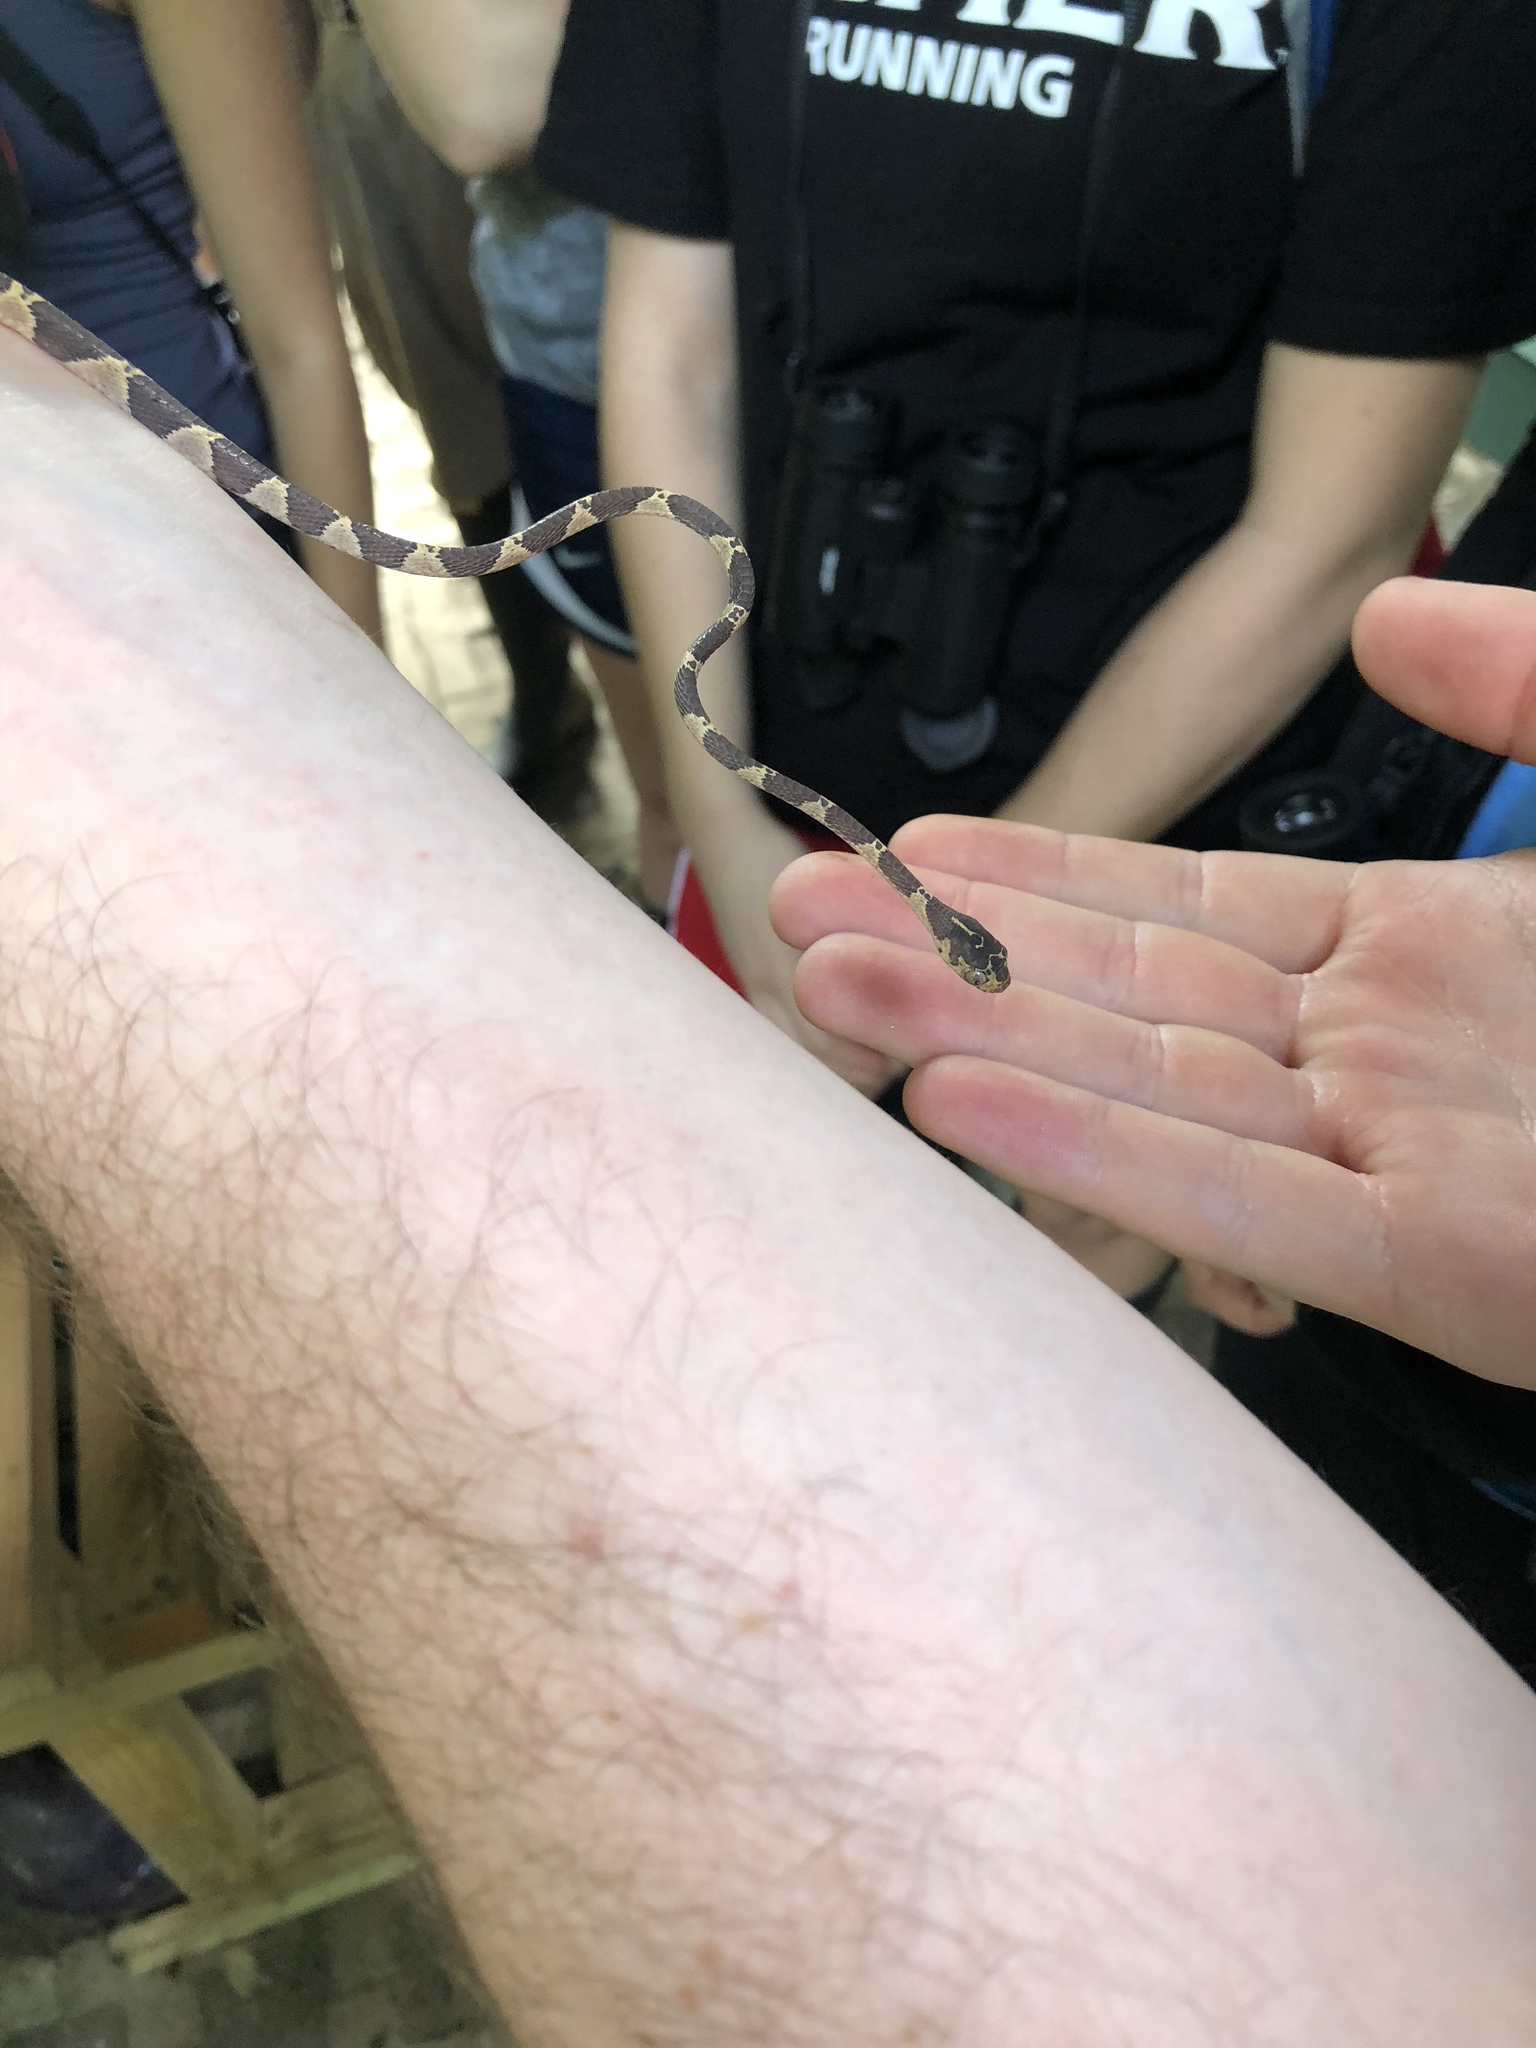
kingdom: Animalia
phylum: Chordata
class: Squamata
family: Colubridae
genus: Imantodes
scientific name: Imantodes cenchoa
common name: Blunthead tree snake
